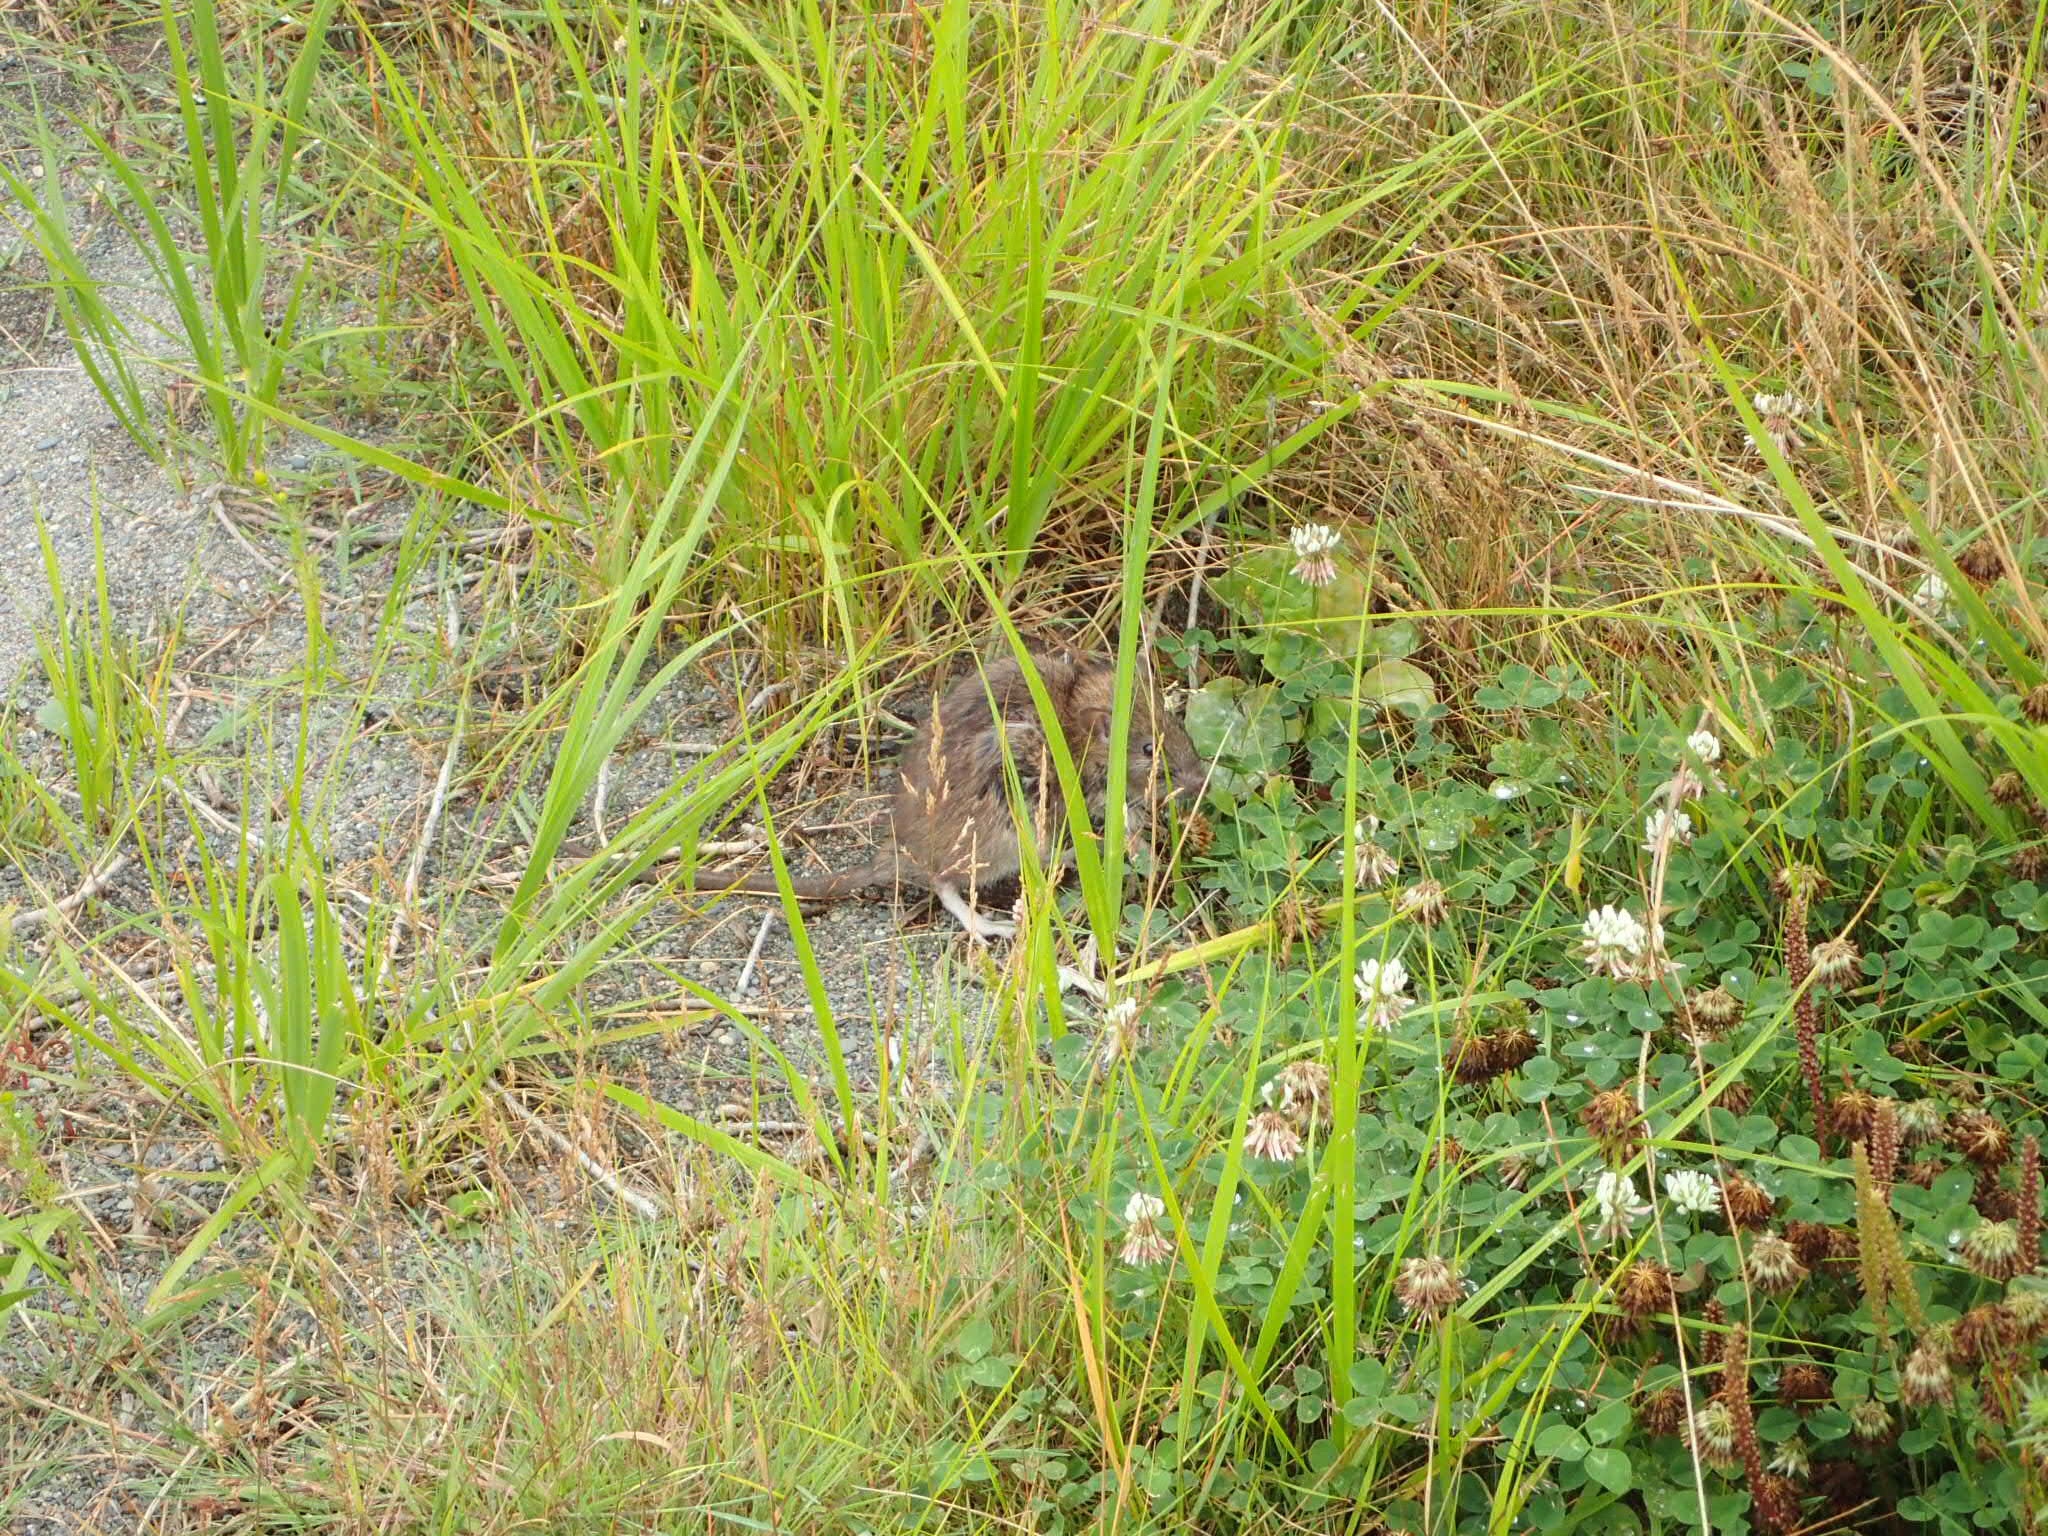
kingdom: Animalia
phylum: Chordata
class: Mammalia
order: Rodentia
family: Muridae
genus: Rattus
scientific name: Rattus norvegicus
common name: Brown rat
